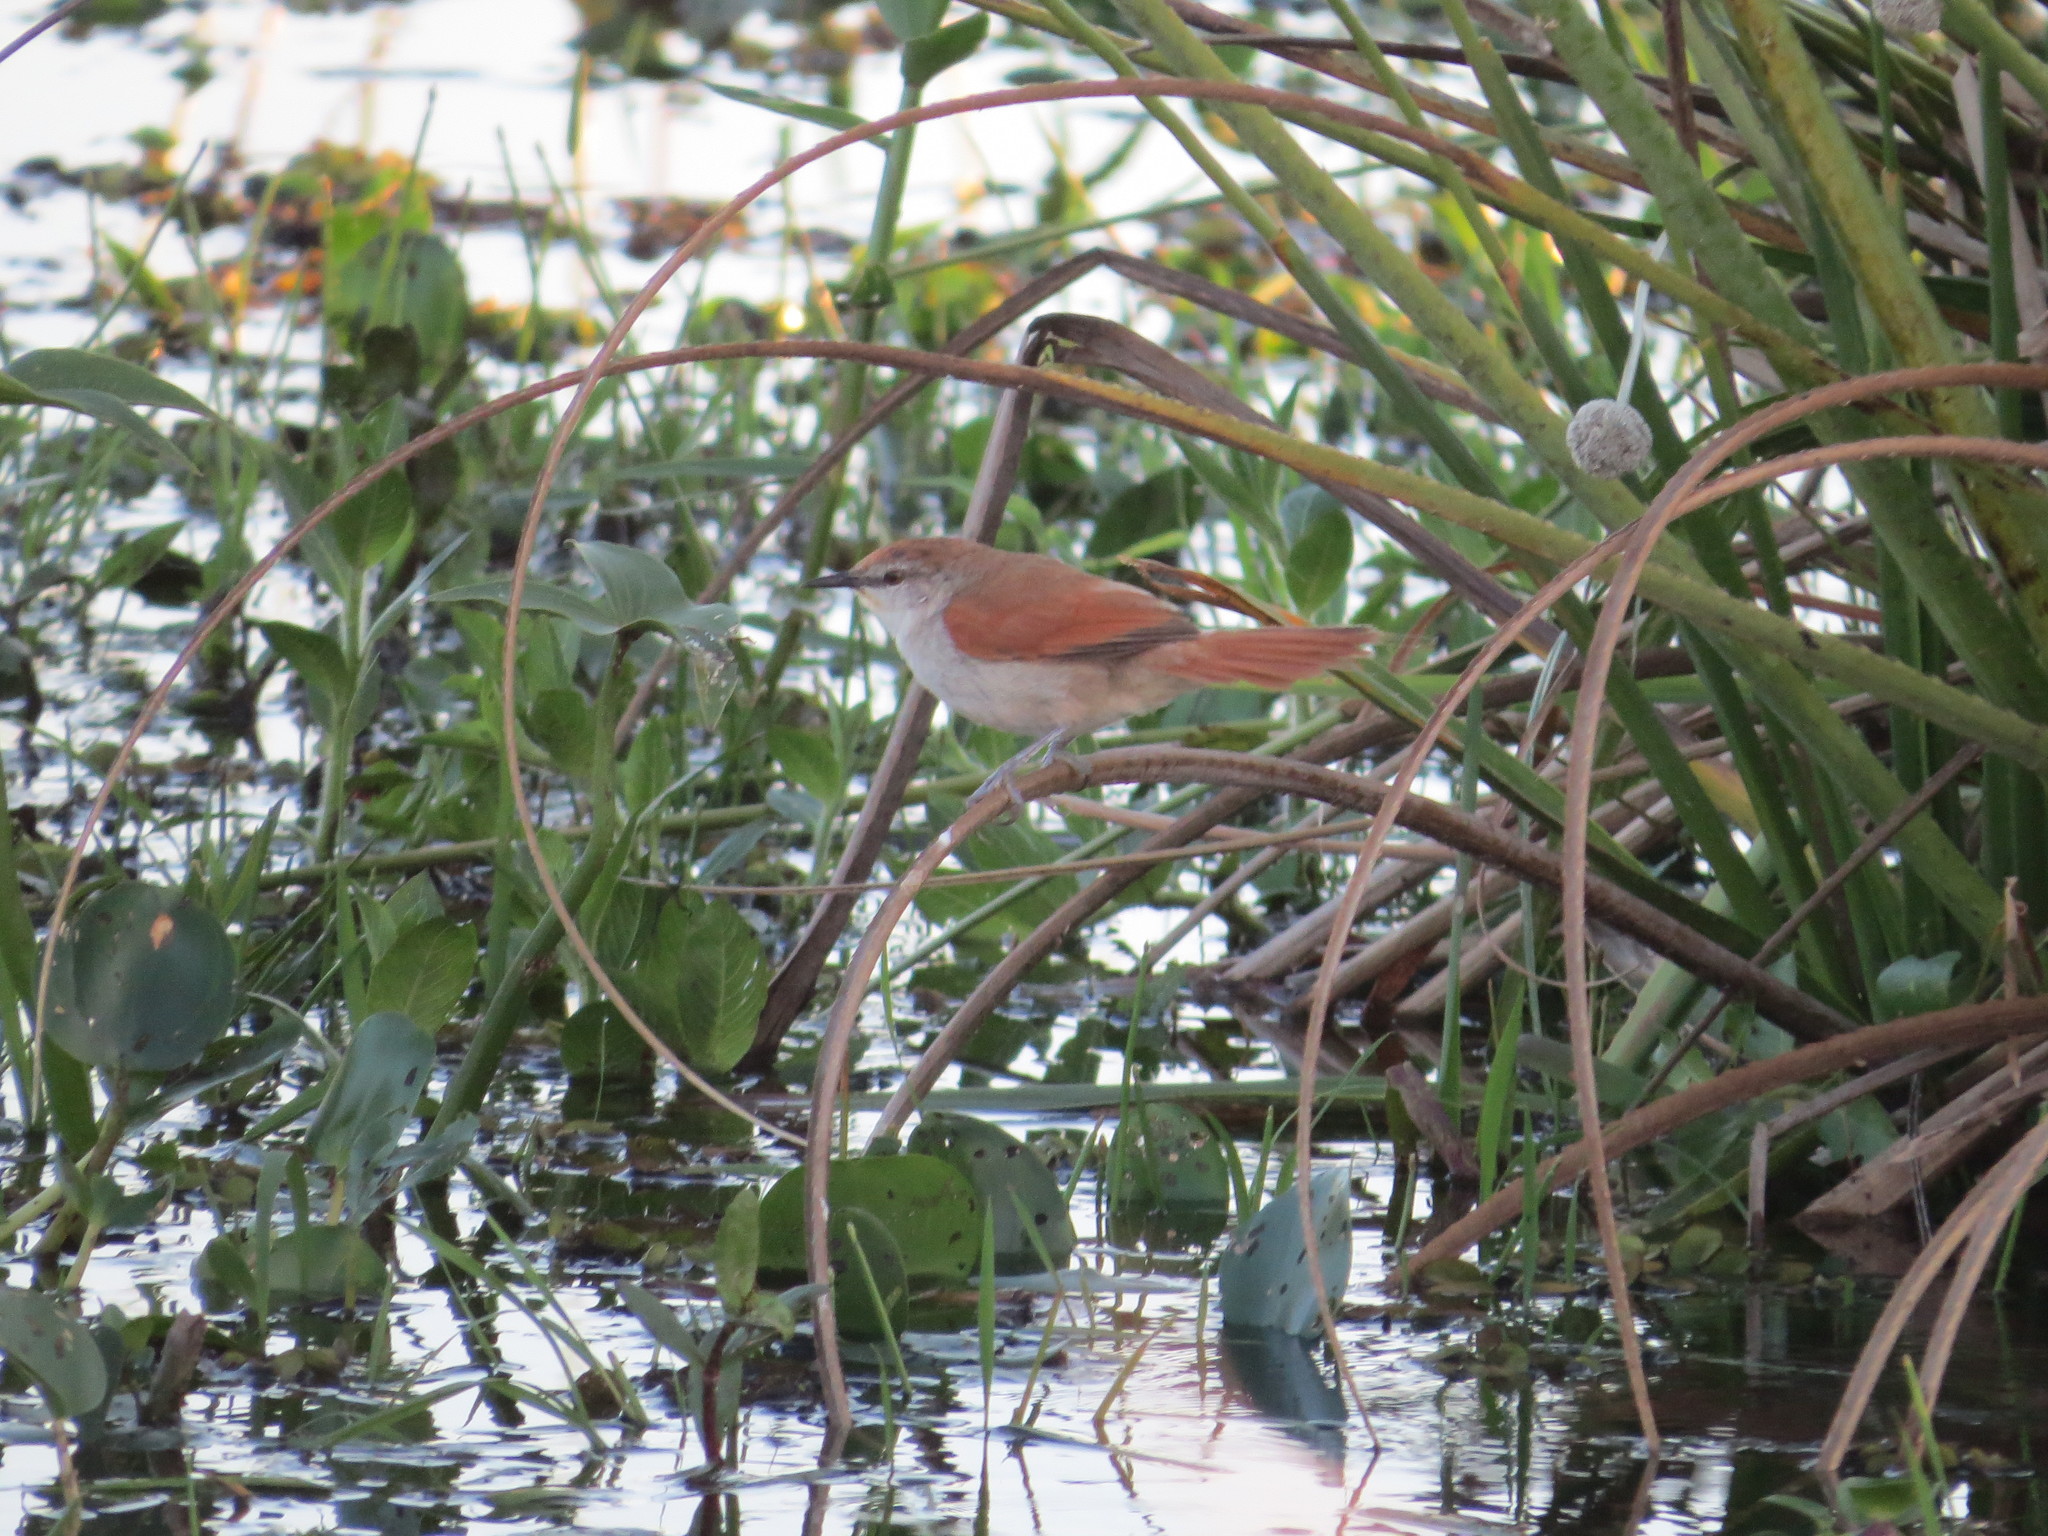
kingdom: Animalia
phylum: Chordata
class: Aves
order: Passeriformes
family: Furnariidae
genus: Certhiaxis
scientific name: Certhiaxis cinnamomeus
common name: Yellow-chinned spinetail
